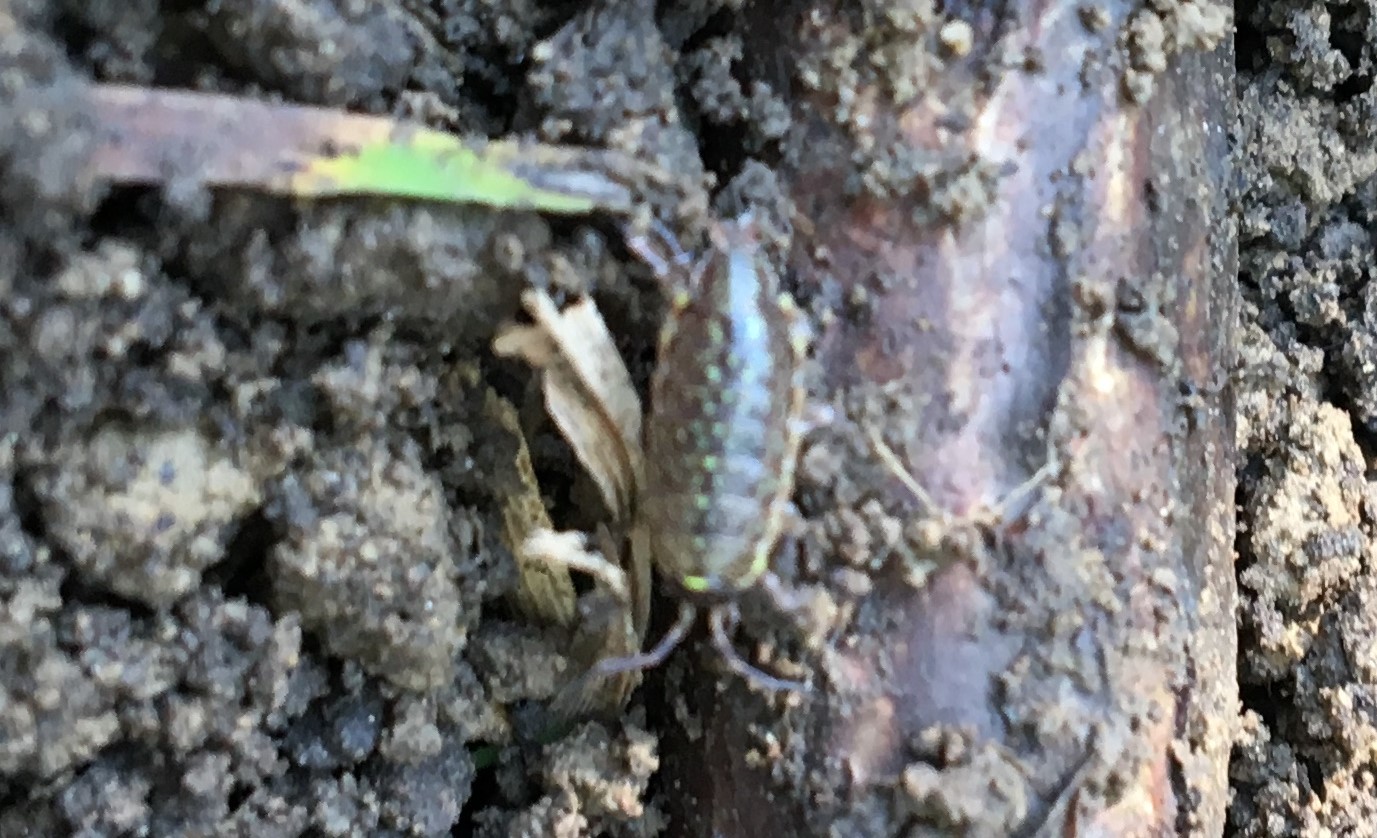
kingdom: Animalia
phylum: Arthropoda
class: Malacostraca
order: Isopoda
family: Philosciidae
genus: Philoscia
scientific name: Philoscia muscorum
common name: Common striped woodlouse
